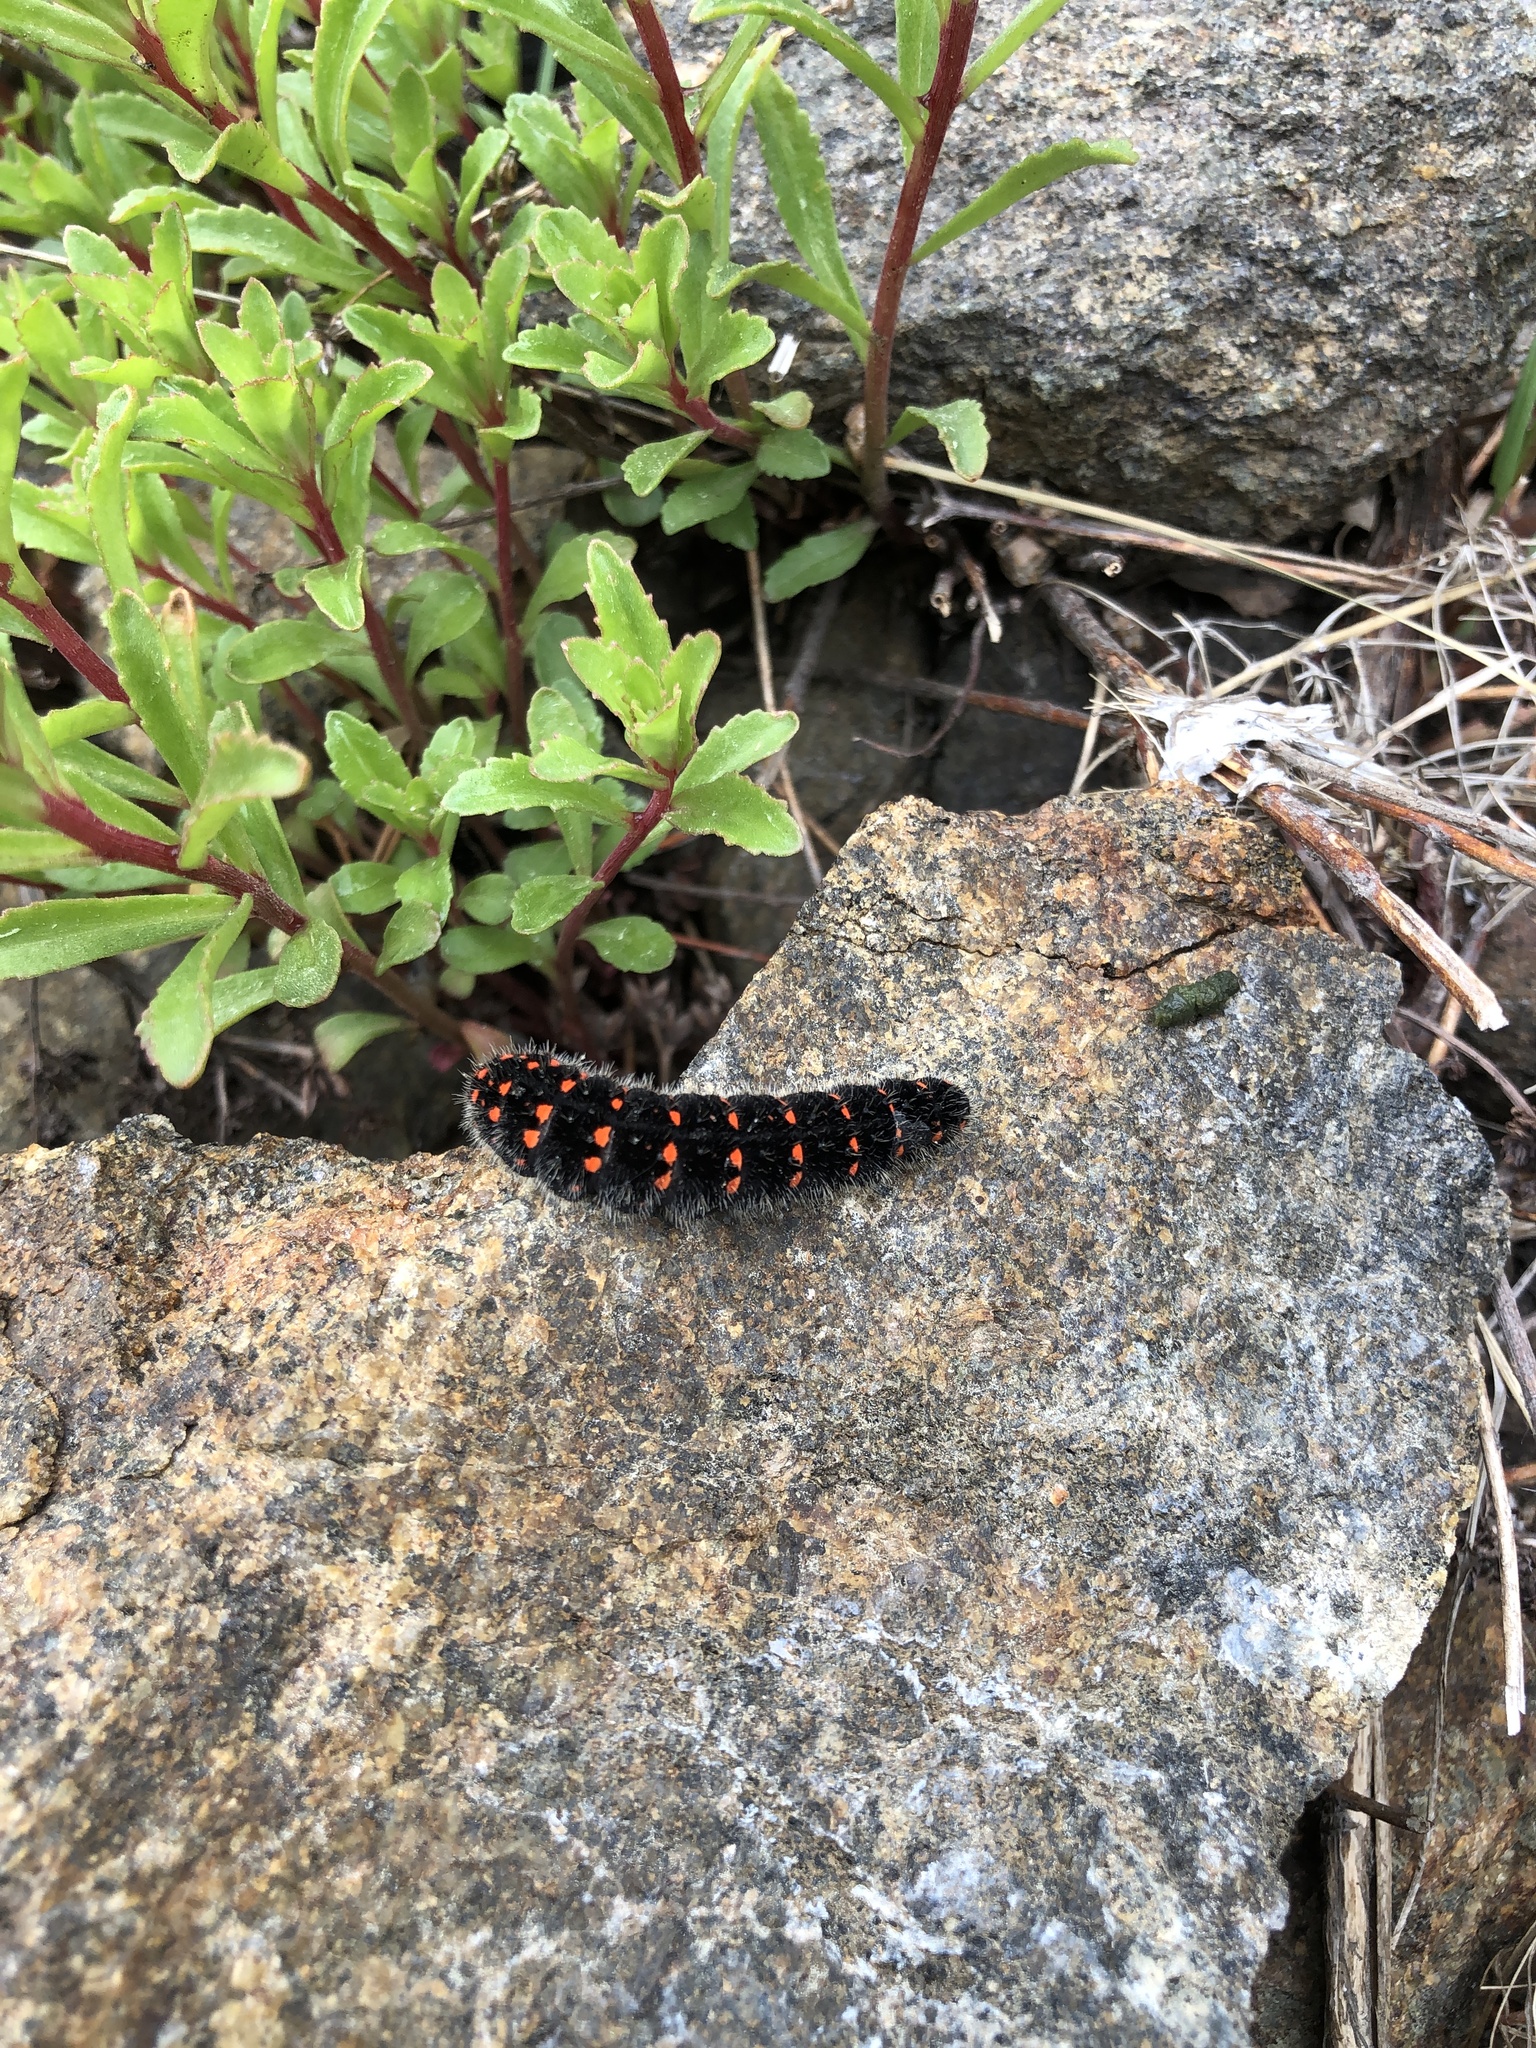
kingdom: Animalia
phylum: Arthropoda
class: Insecta
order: Lepidoptera
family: Papilionidae
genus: Parnassius
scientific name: Parnassius nomion
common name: Nomion apollo
